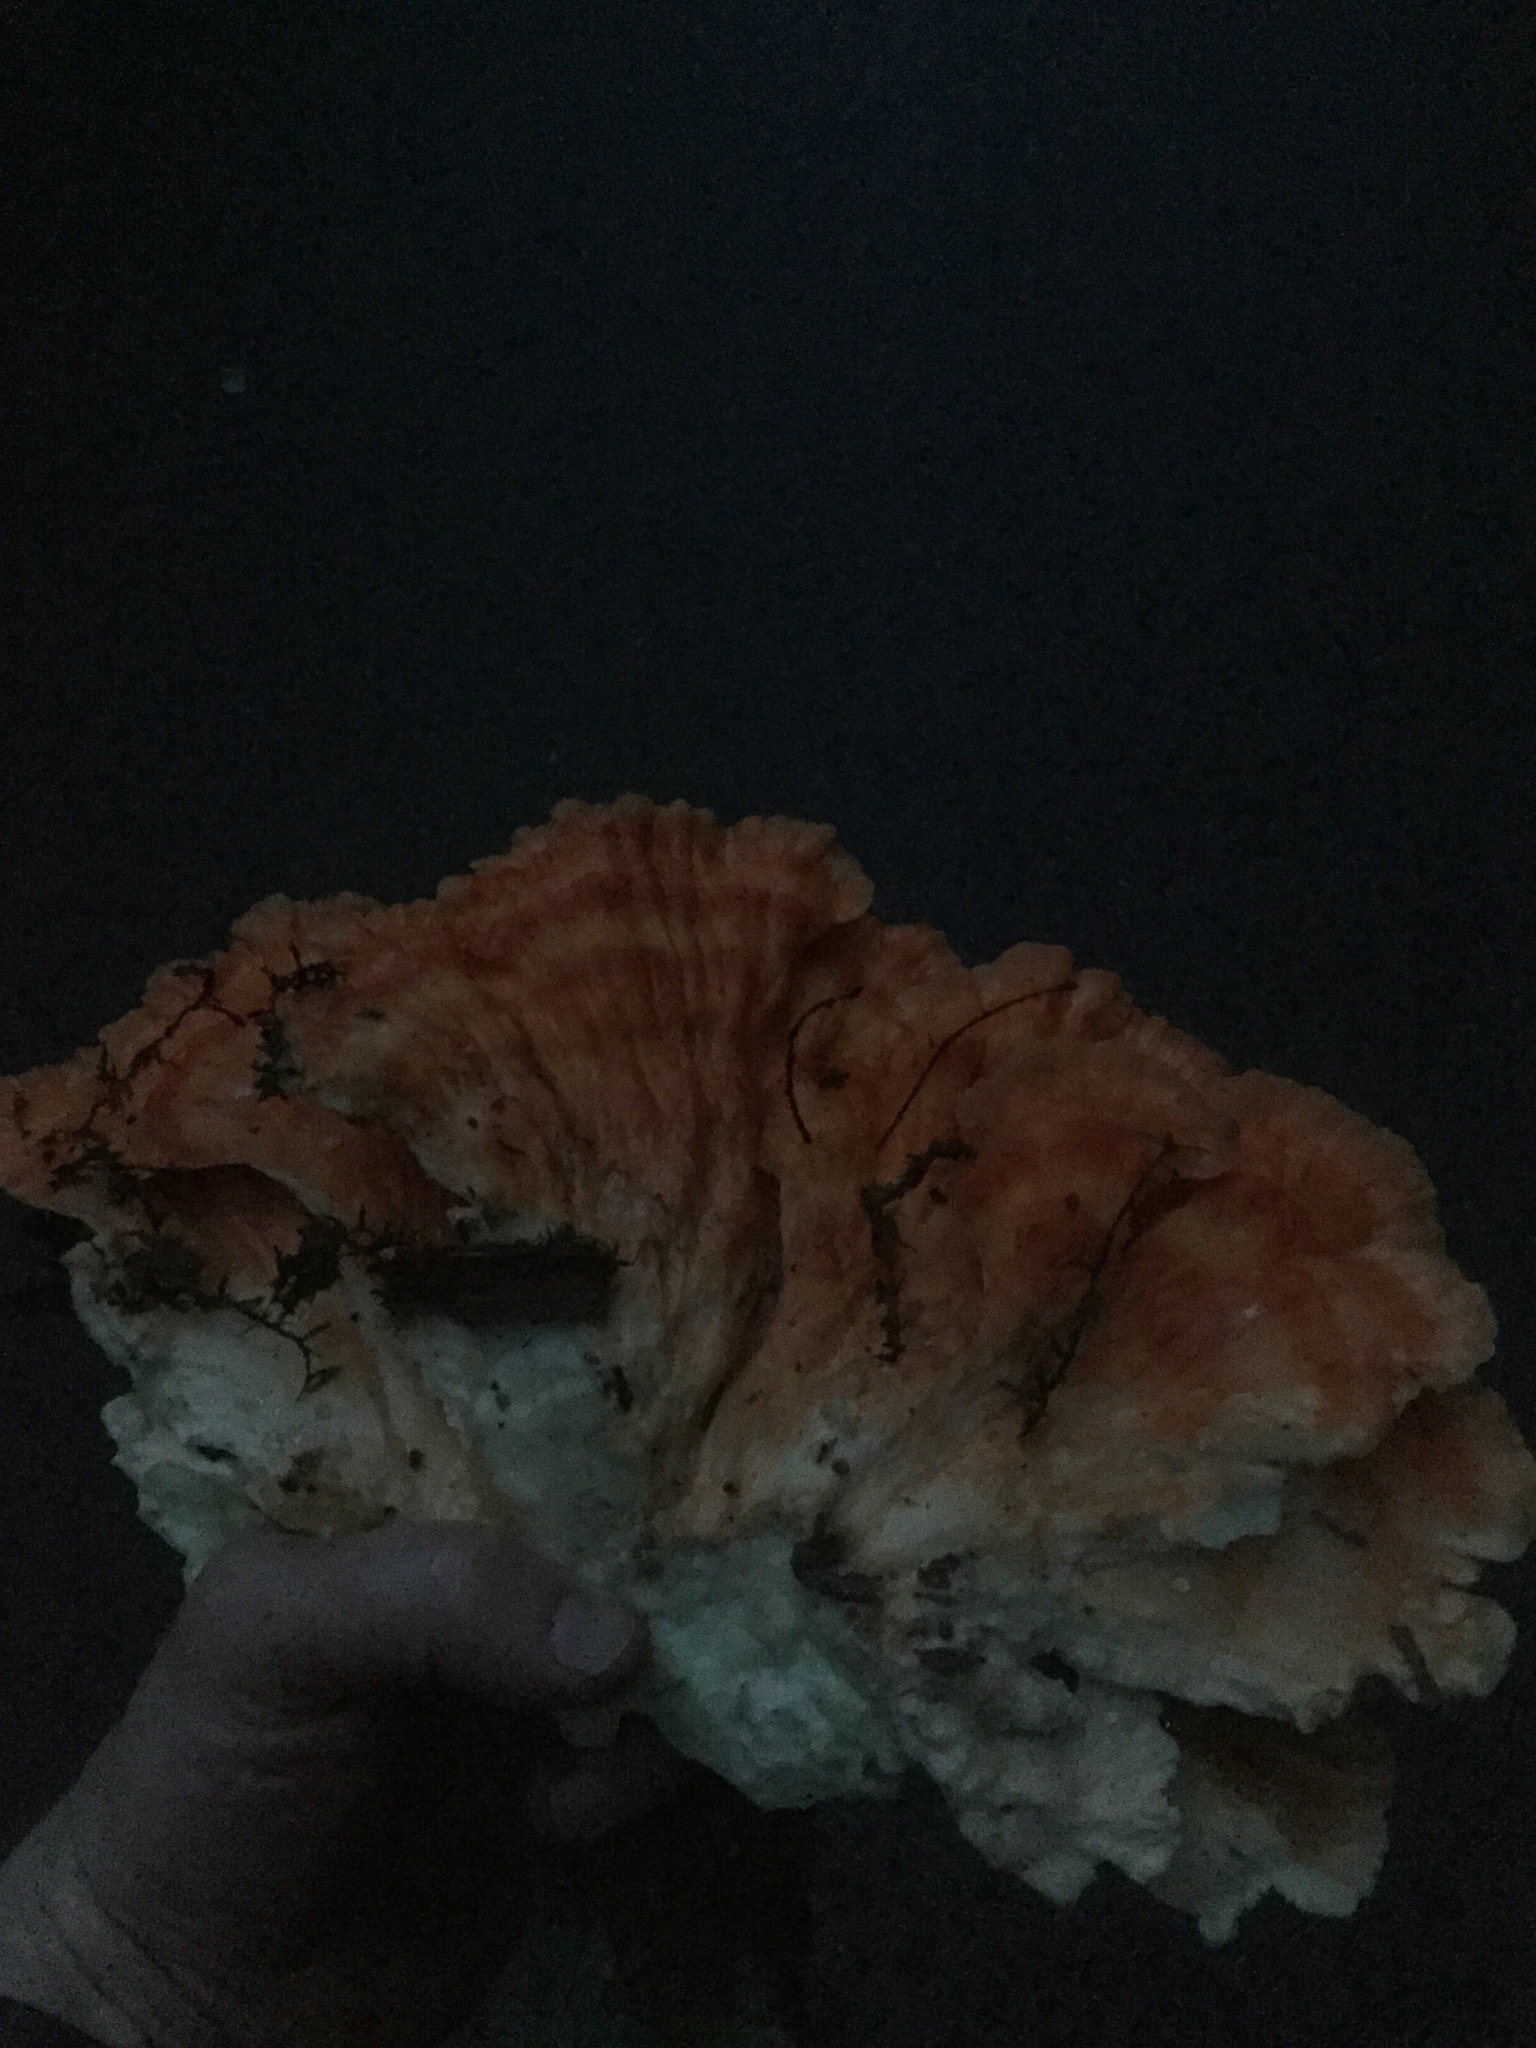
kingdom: Fungi
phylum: Basidiomycota
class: Agaricomycetes
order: Polyporales
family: Laetiporaceae
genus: Laetiporus
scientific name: Laetiporus huroniensis
